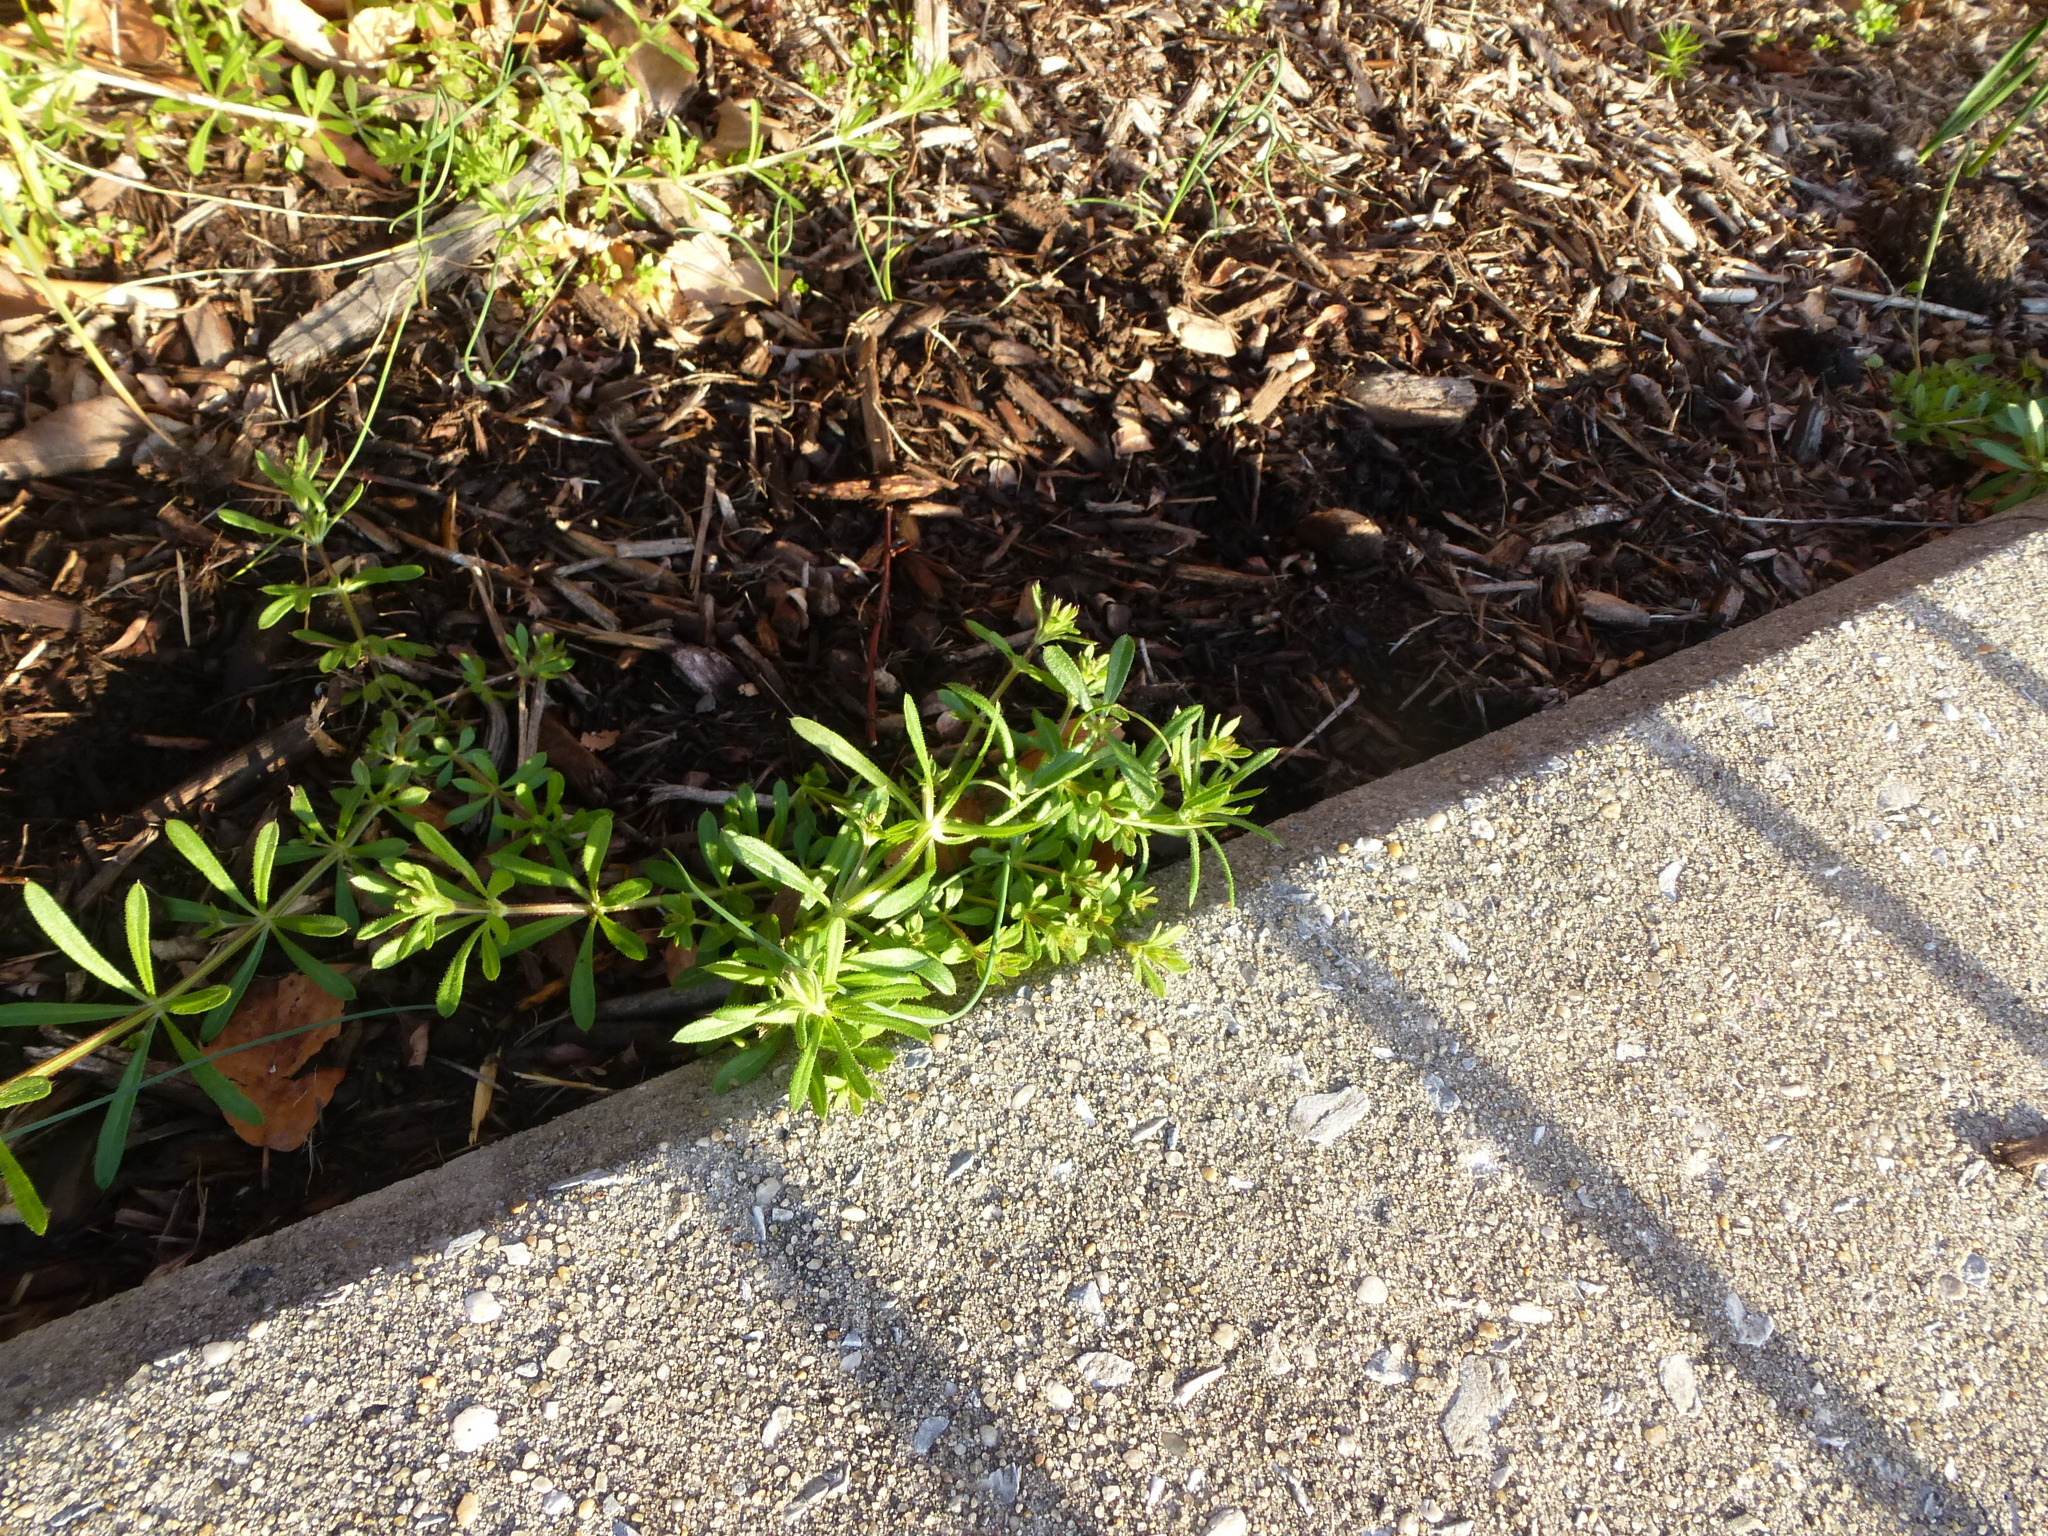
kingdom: Plantae
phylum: Tracheophyta
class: Magnoliopsida
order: Gentianales
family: Rubiaceae
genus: Galium
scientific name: Galium aparine
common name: Cleavers
